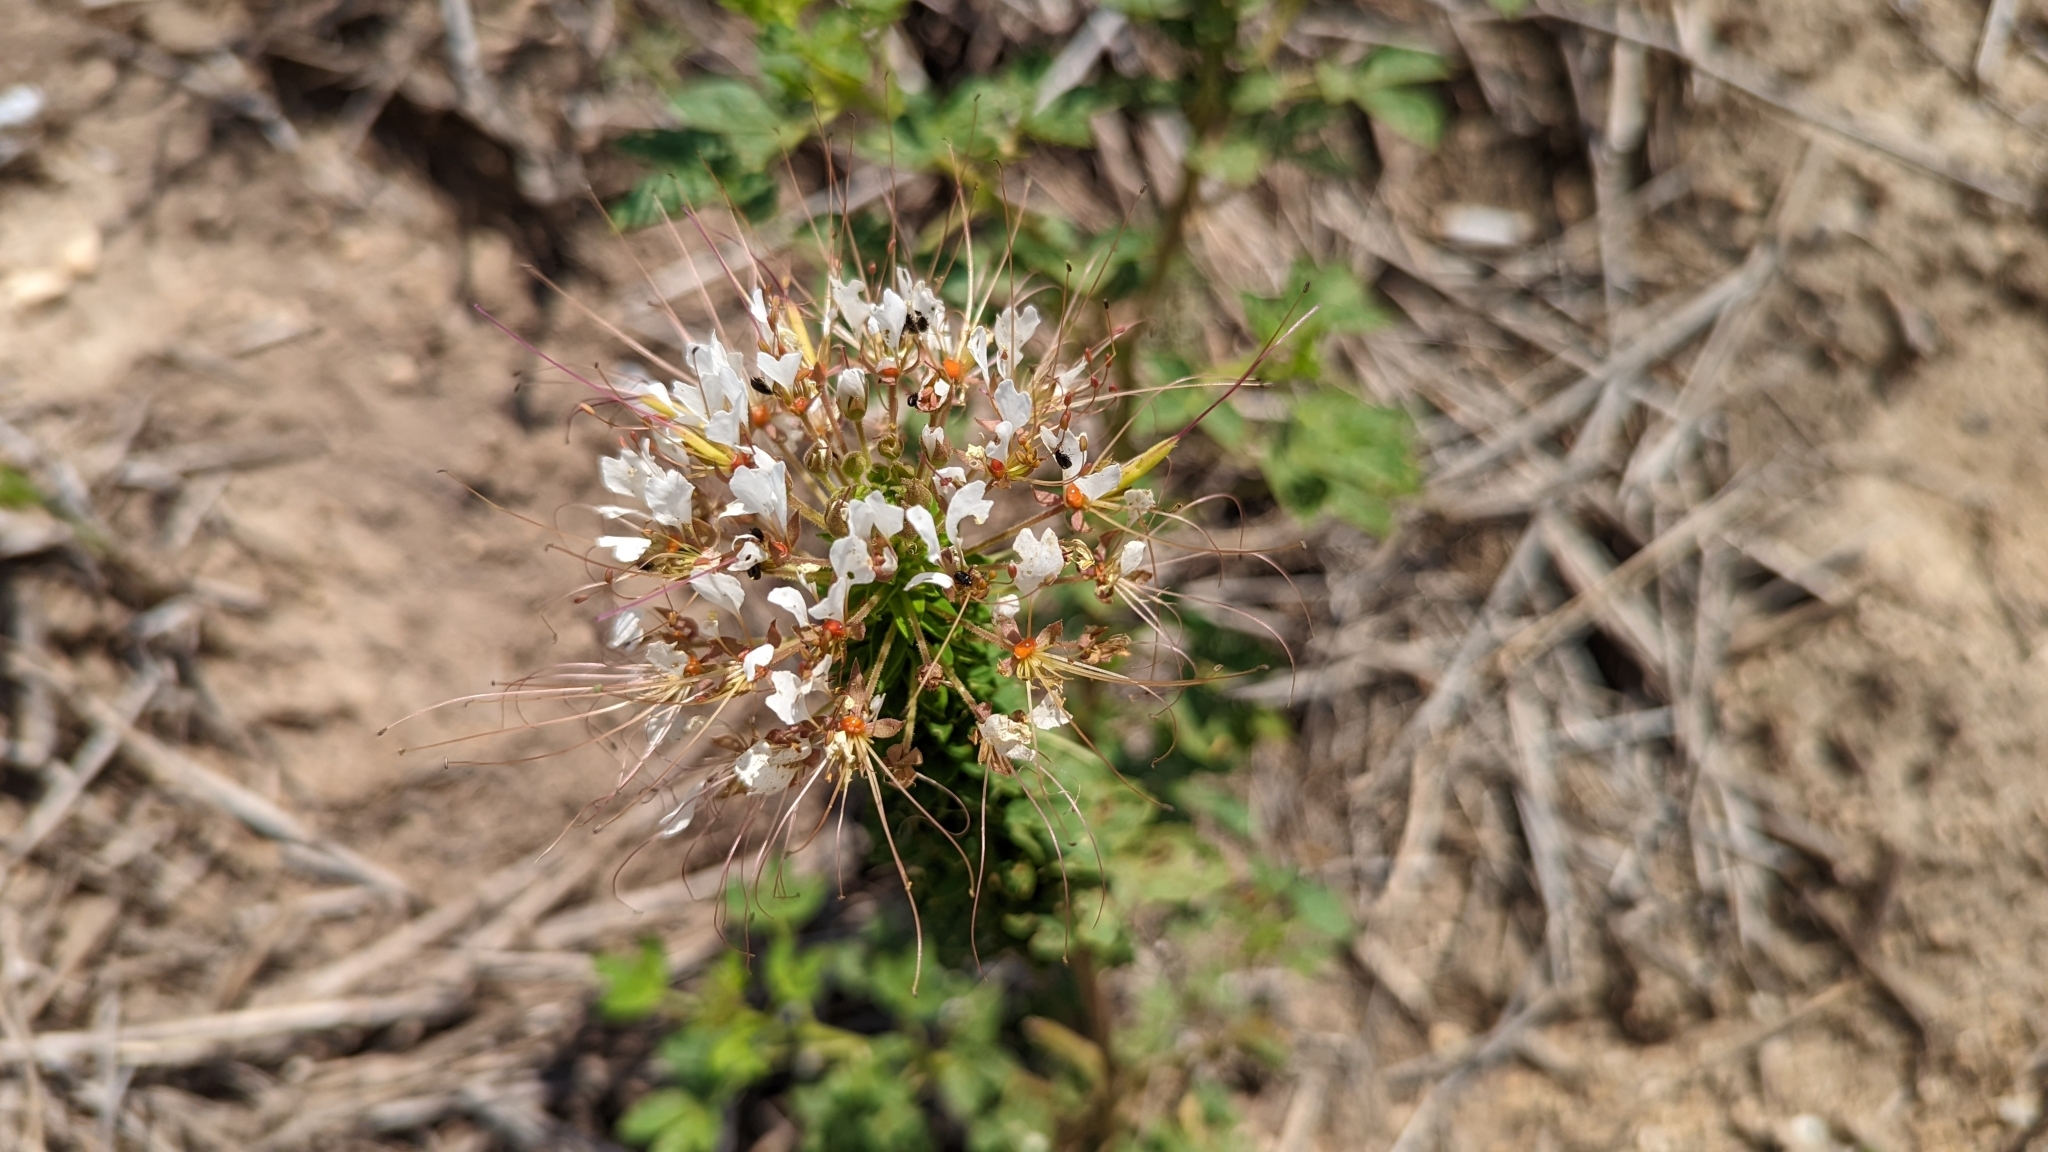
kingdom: Plantae
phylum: Tracheophyta
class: Magnoliopsida
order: Brassicales
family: Cleomaceae
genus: Polanisia
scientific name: Polanisia dodecandra
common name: Clammyweed
